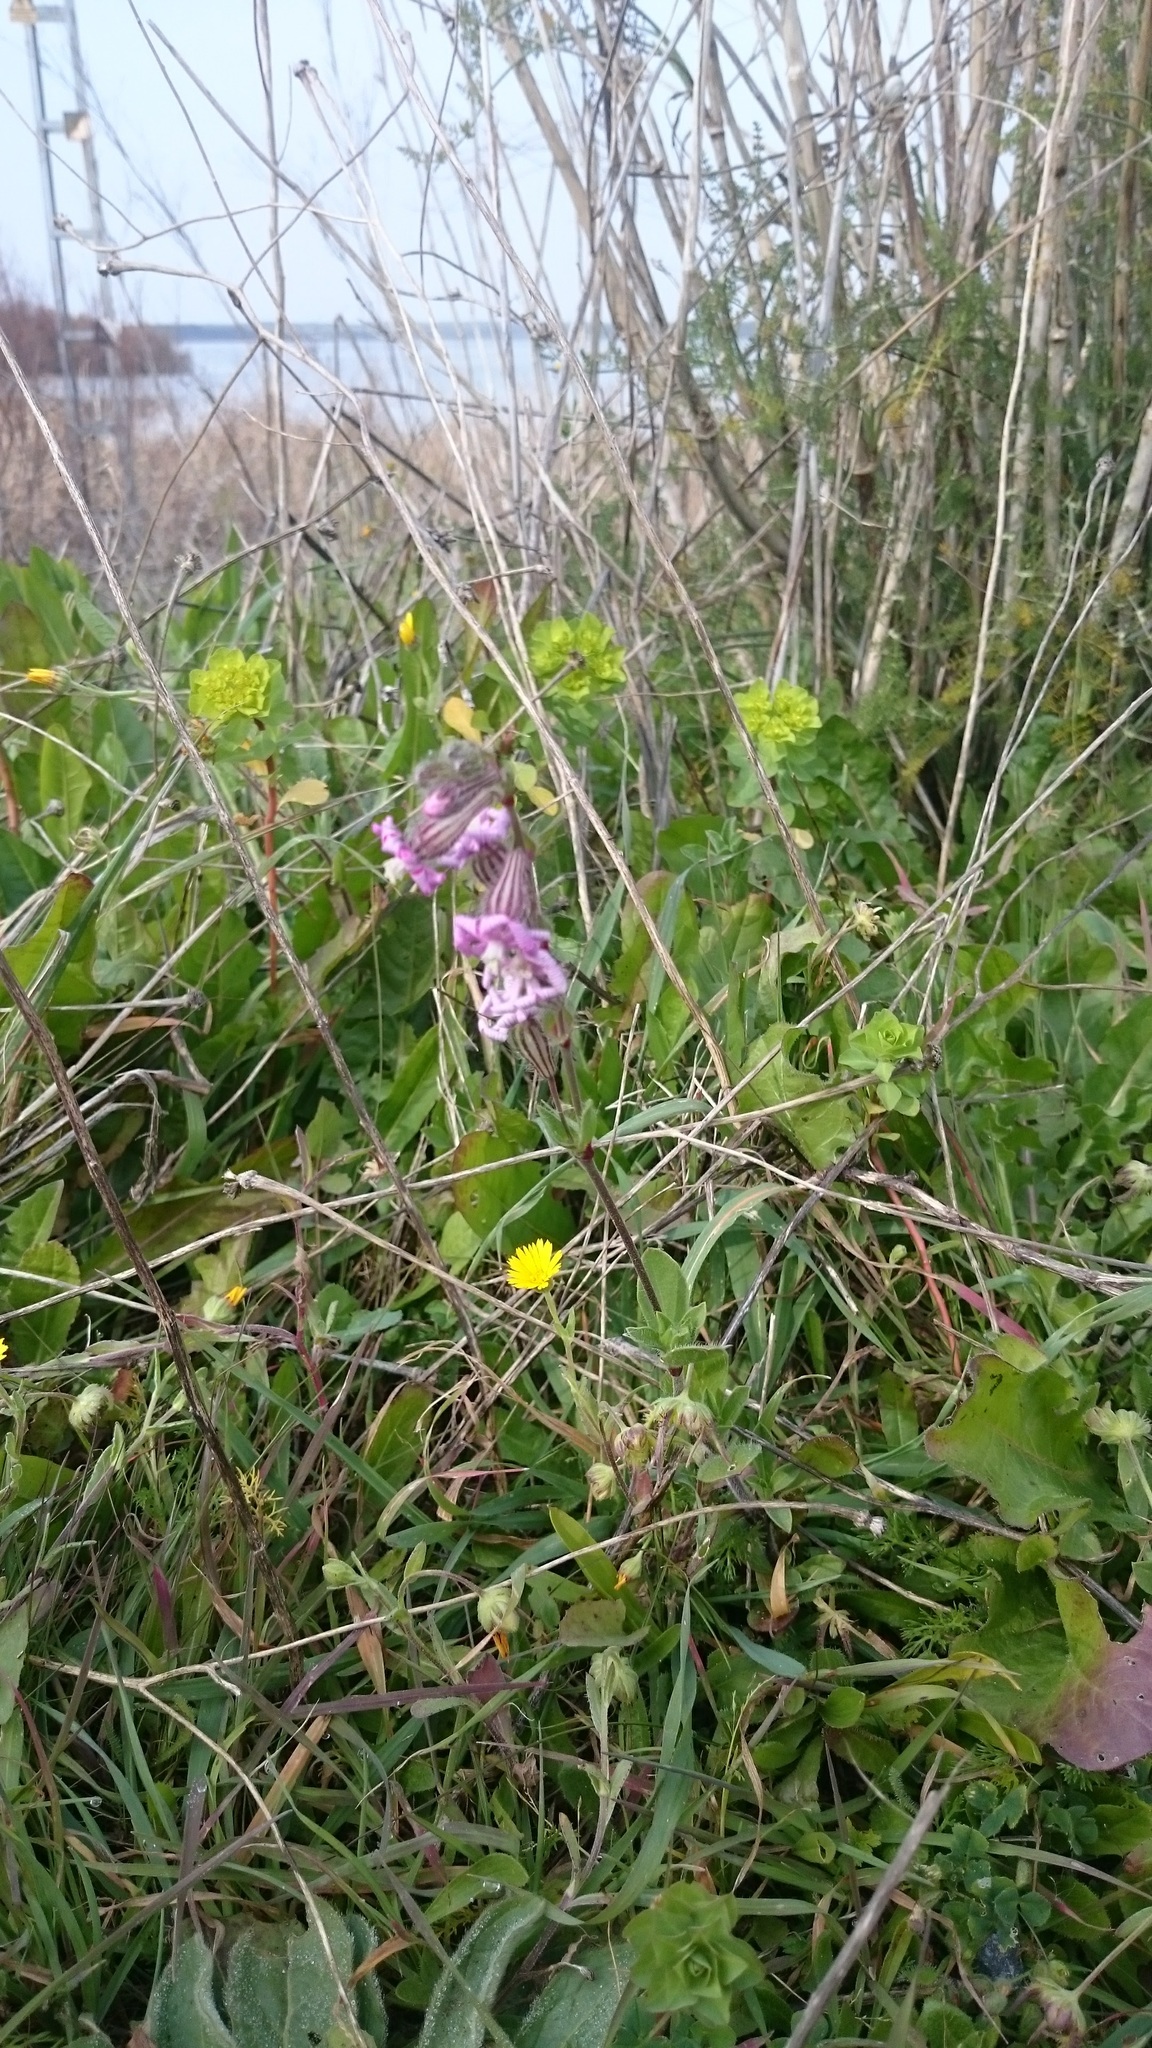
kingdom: Plantae
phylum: Tracheophyta
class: Magnoliopsida
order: Caryophyllales
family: Caryophyllaceae
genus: Silene
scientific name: Silene colorata
